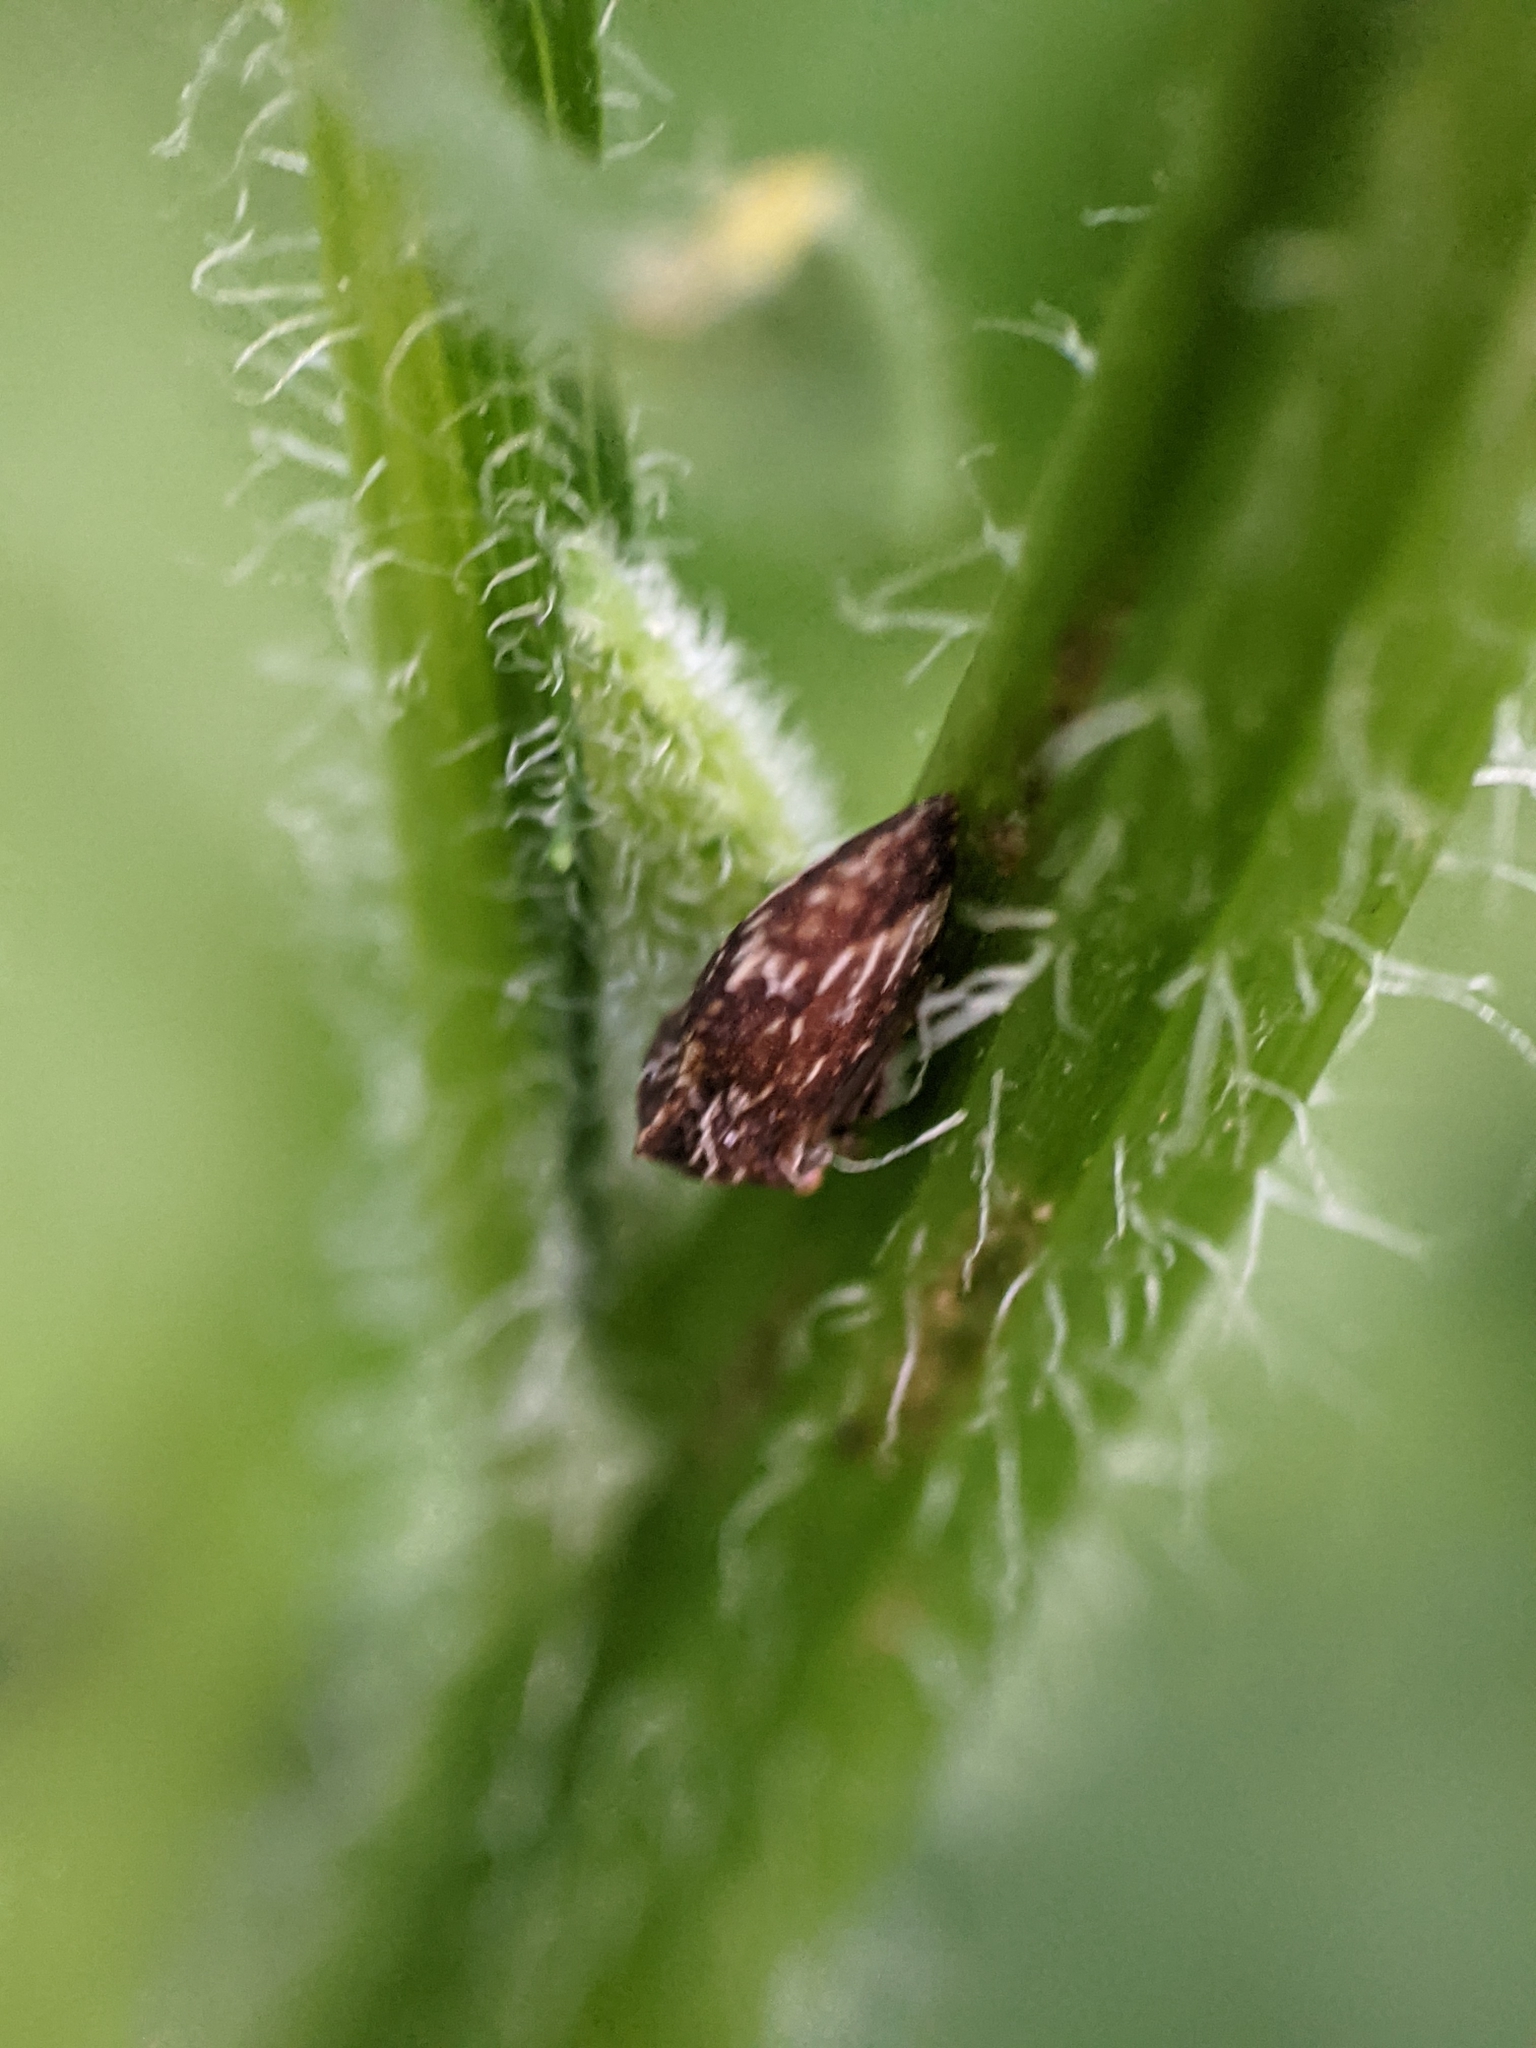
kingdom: Animalia
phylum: Arthropoda
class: Insecta
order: Hemiptera
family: Membracidae
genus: Publilia
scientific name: Publilia concava
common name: Aster treehopper
